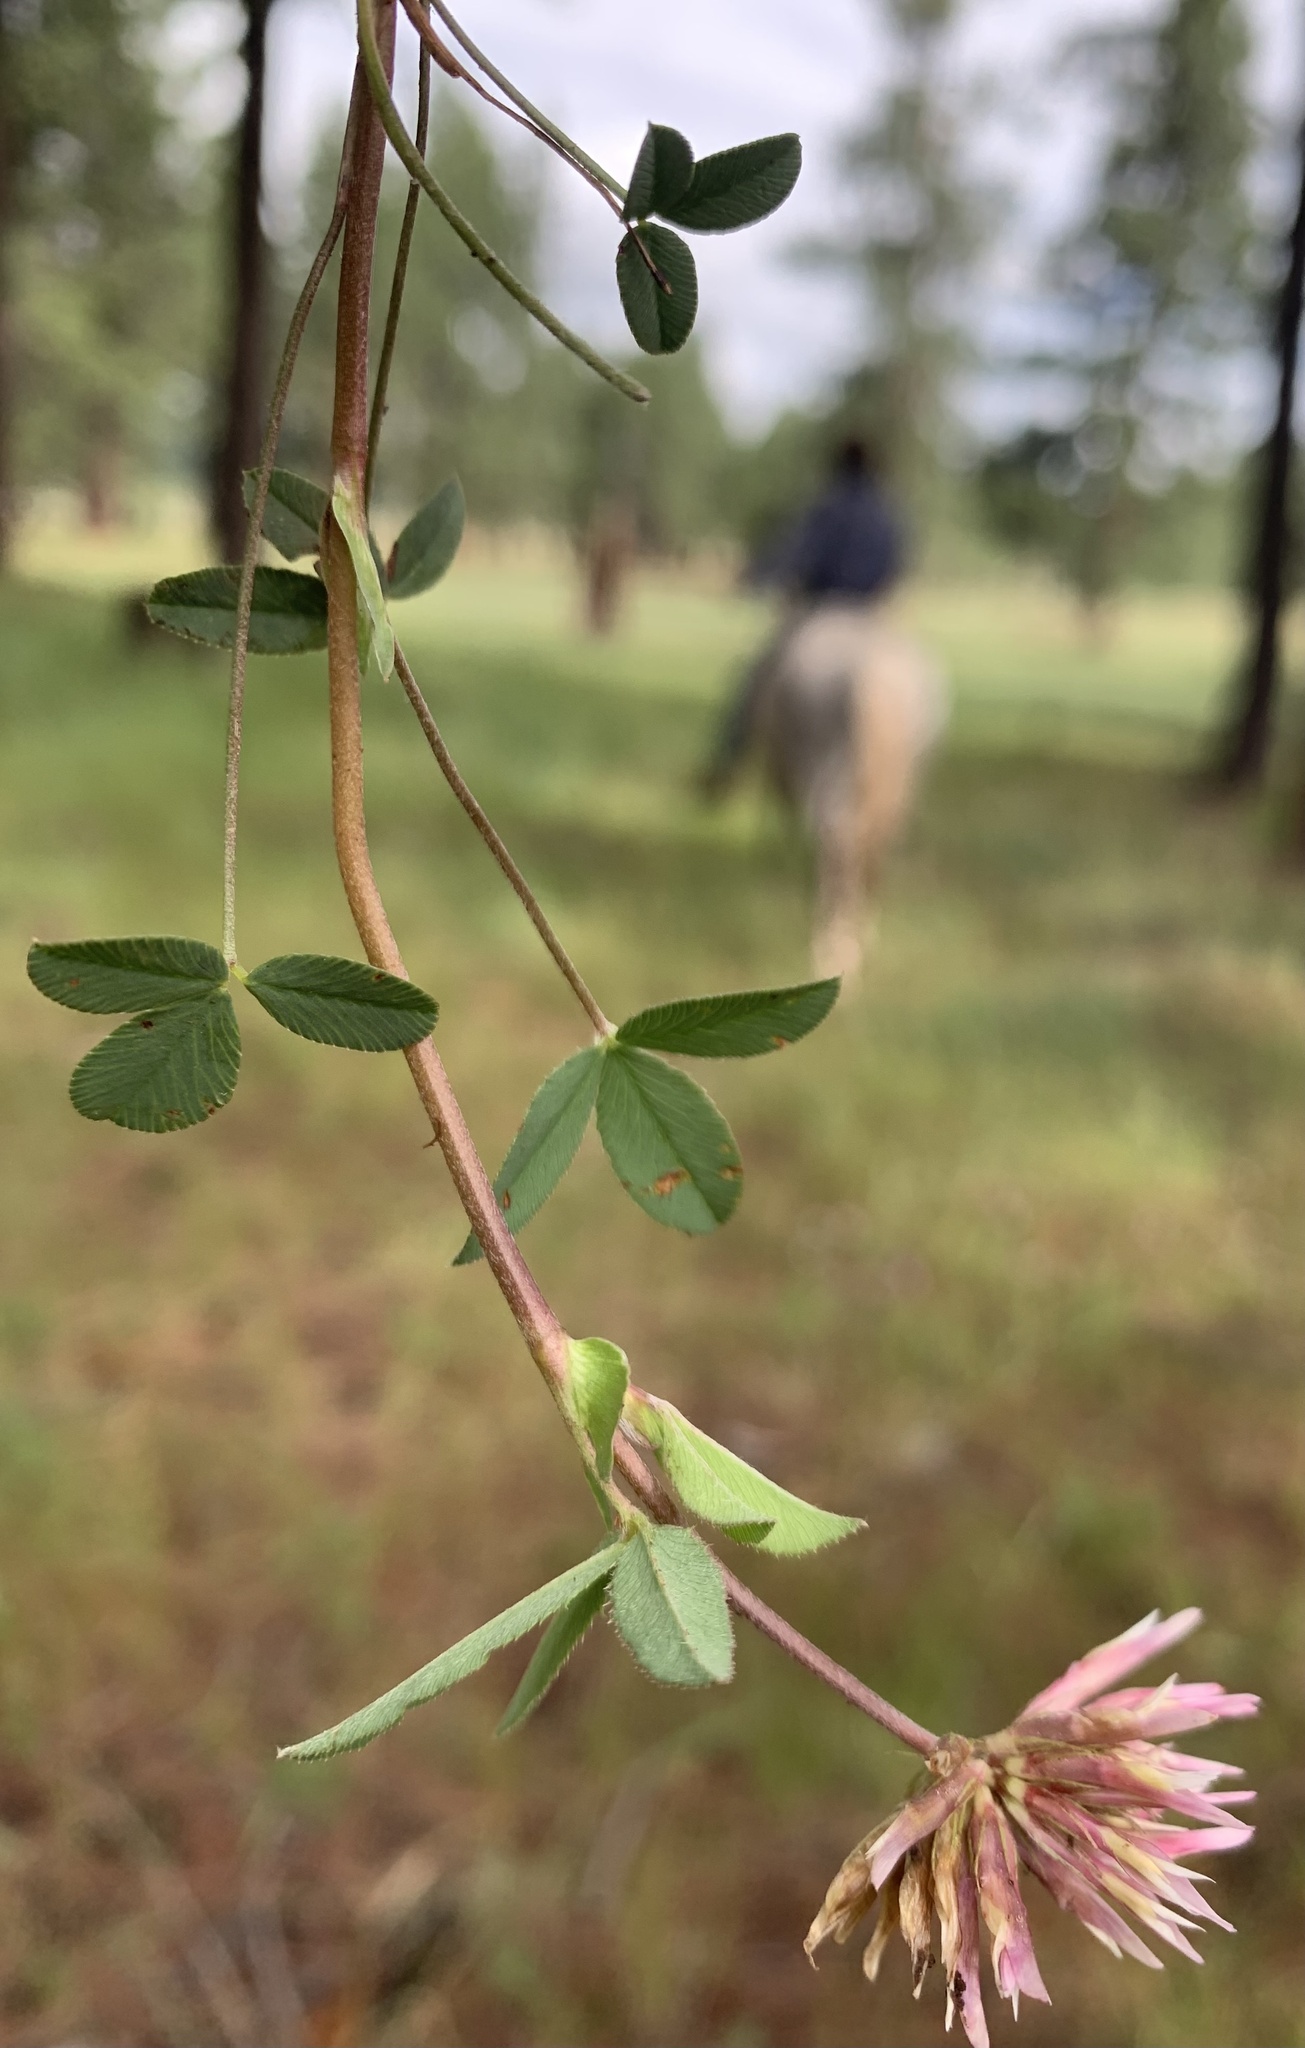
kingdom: Plantae
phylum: Tracheophyta
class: Magnoliopsida
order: Fabales
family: Fabaceae
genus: Trifolium
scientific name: Trifolium longipes
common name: Long-stalk clover
